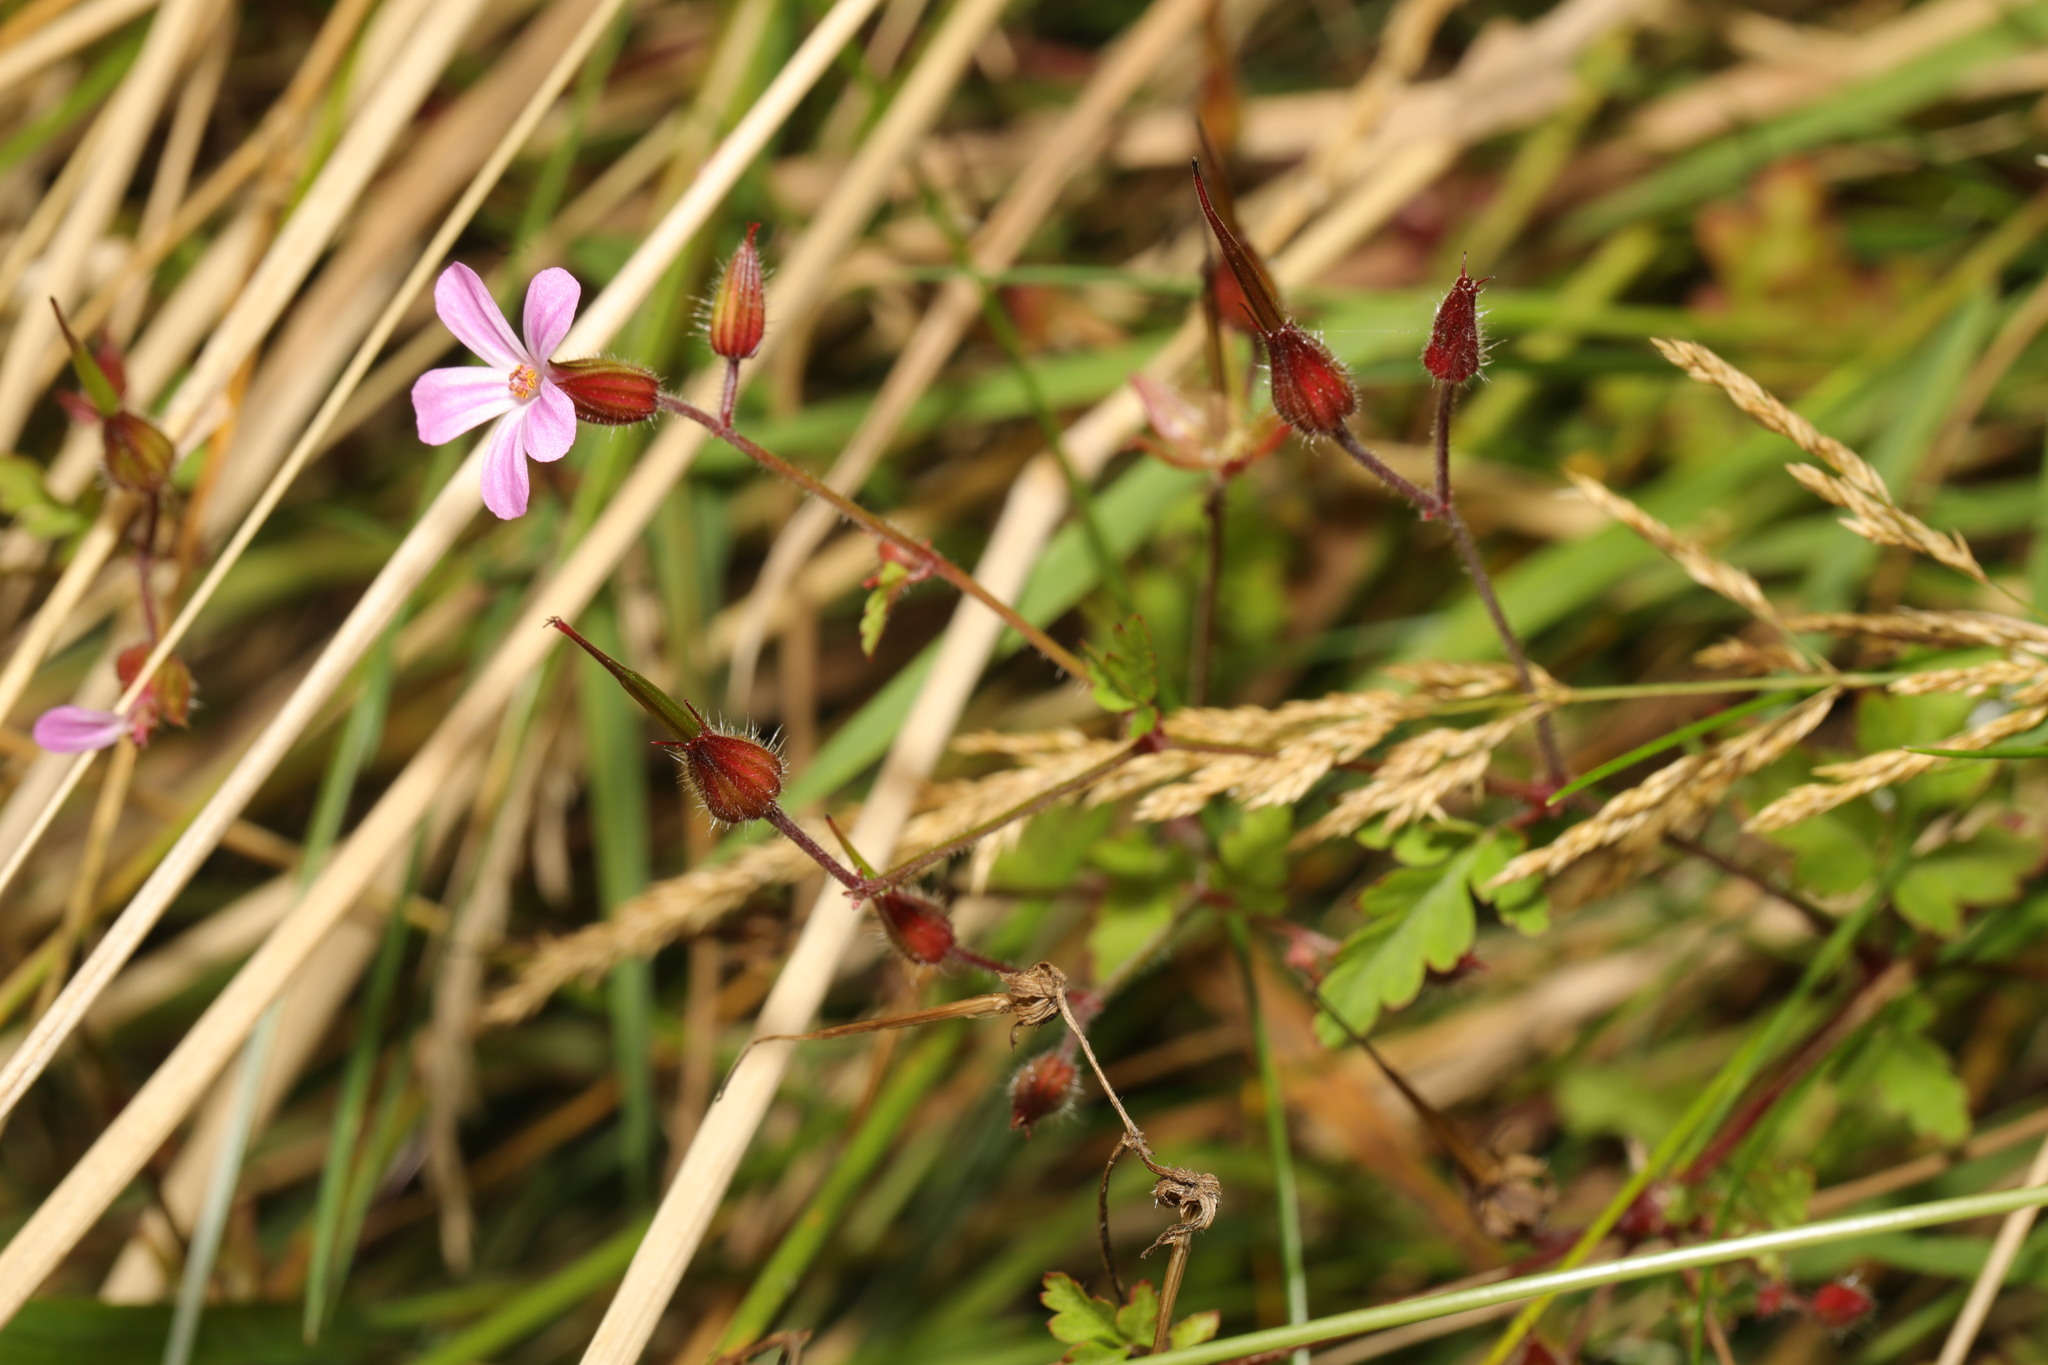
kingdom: Plantae
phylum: Tracheophyta
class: Magnoliopsida
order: Geraniales
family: Geraniaceae
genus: Geranium
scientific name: Geranium robertianum
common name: Herb-robert
